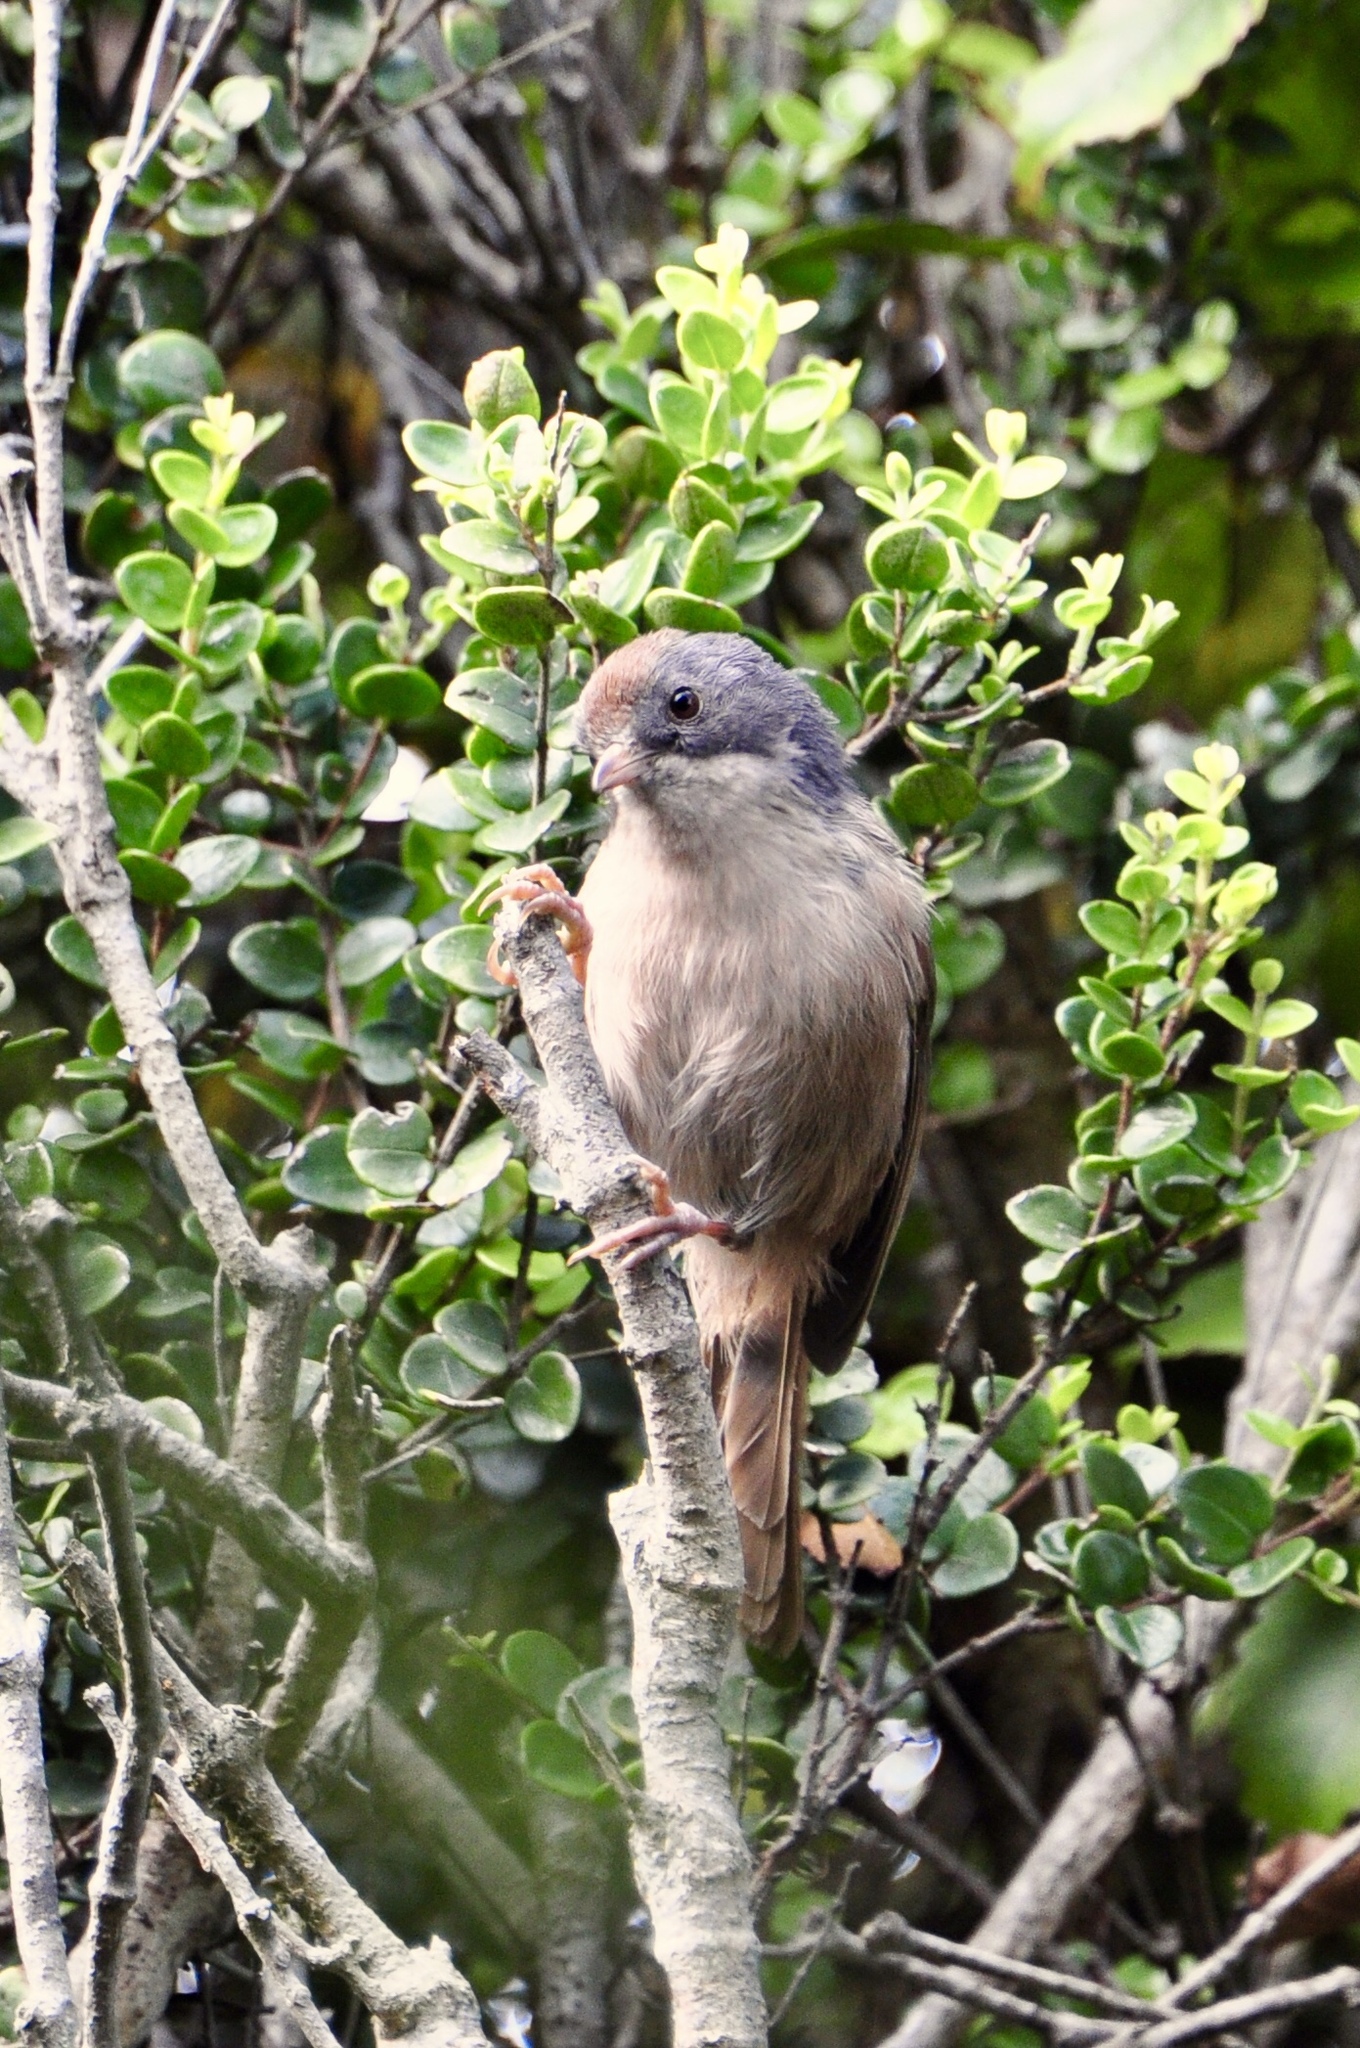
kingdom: Animalia
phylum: Chordata
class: Aves
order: Passeriformes
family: Acanthizidae
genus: Finschia
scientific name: Finschia novaeseelandiae
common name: Pipipi
